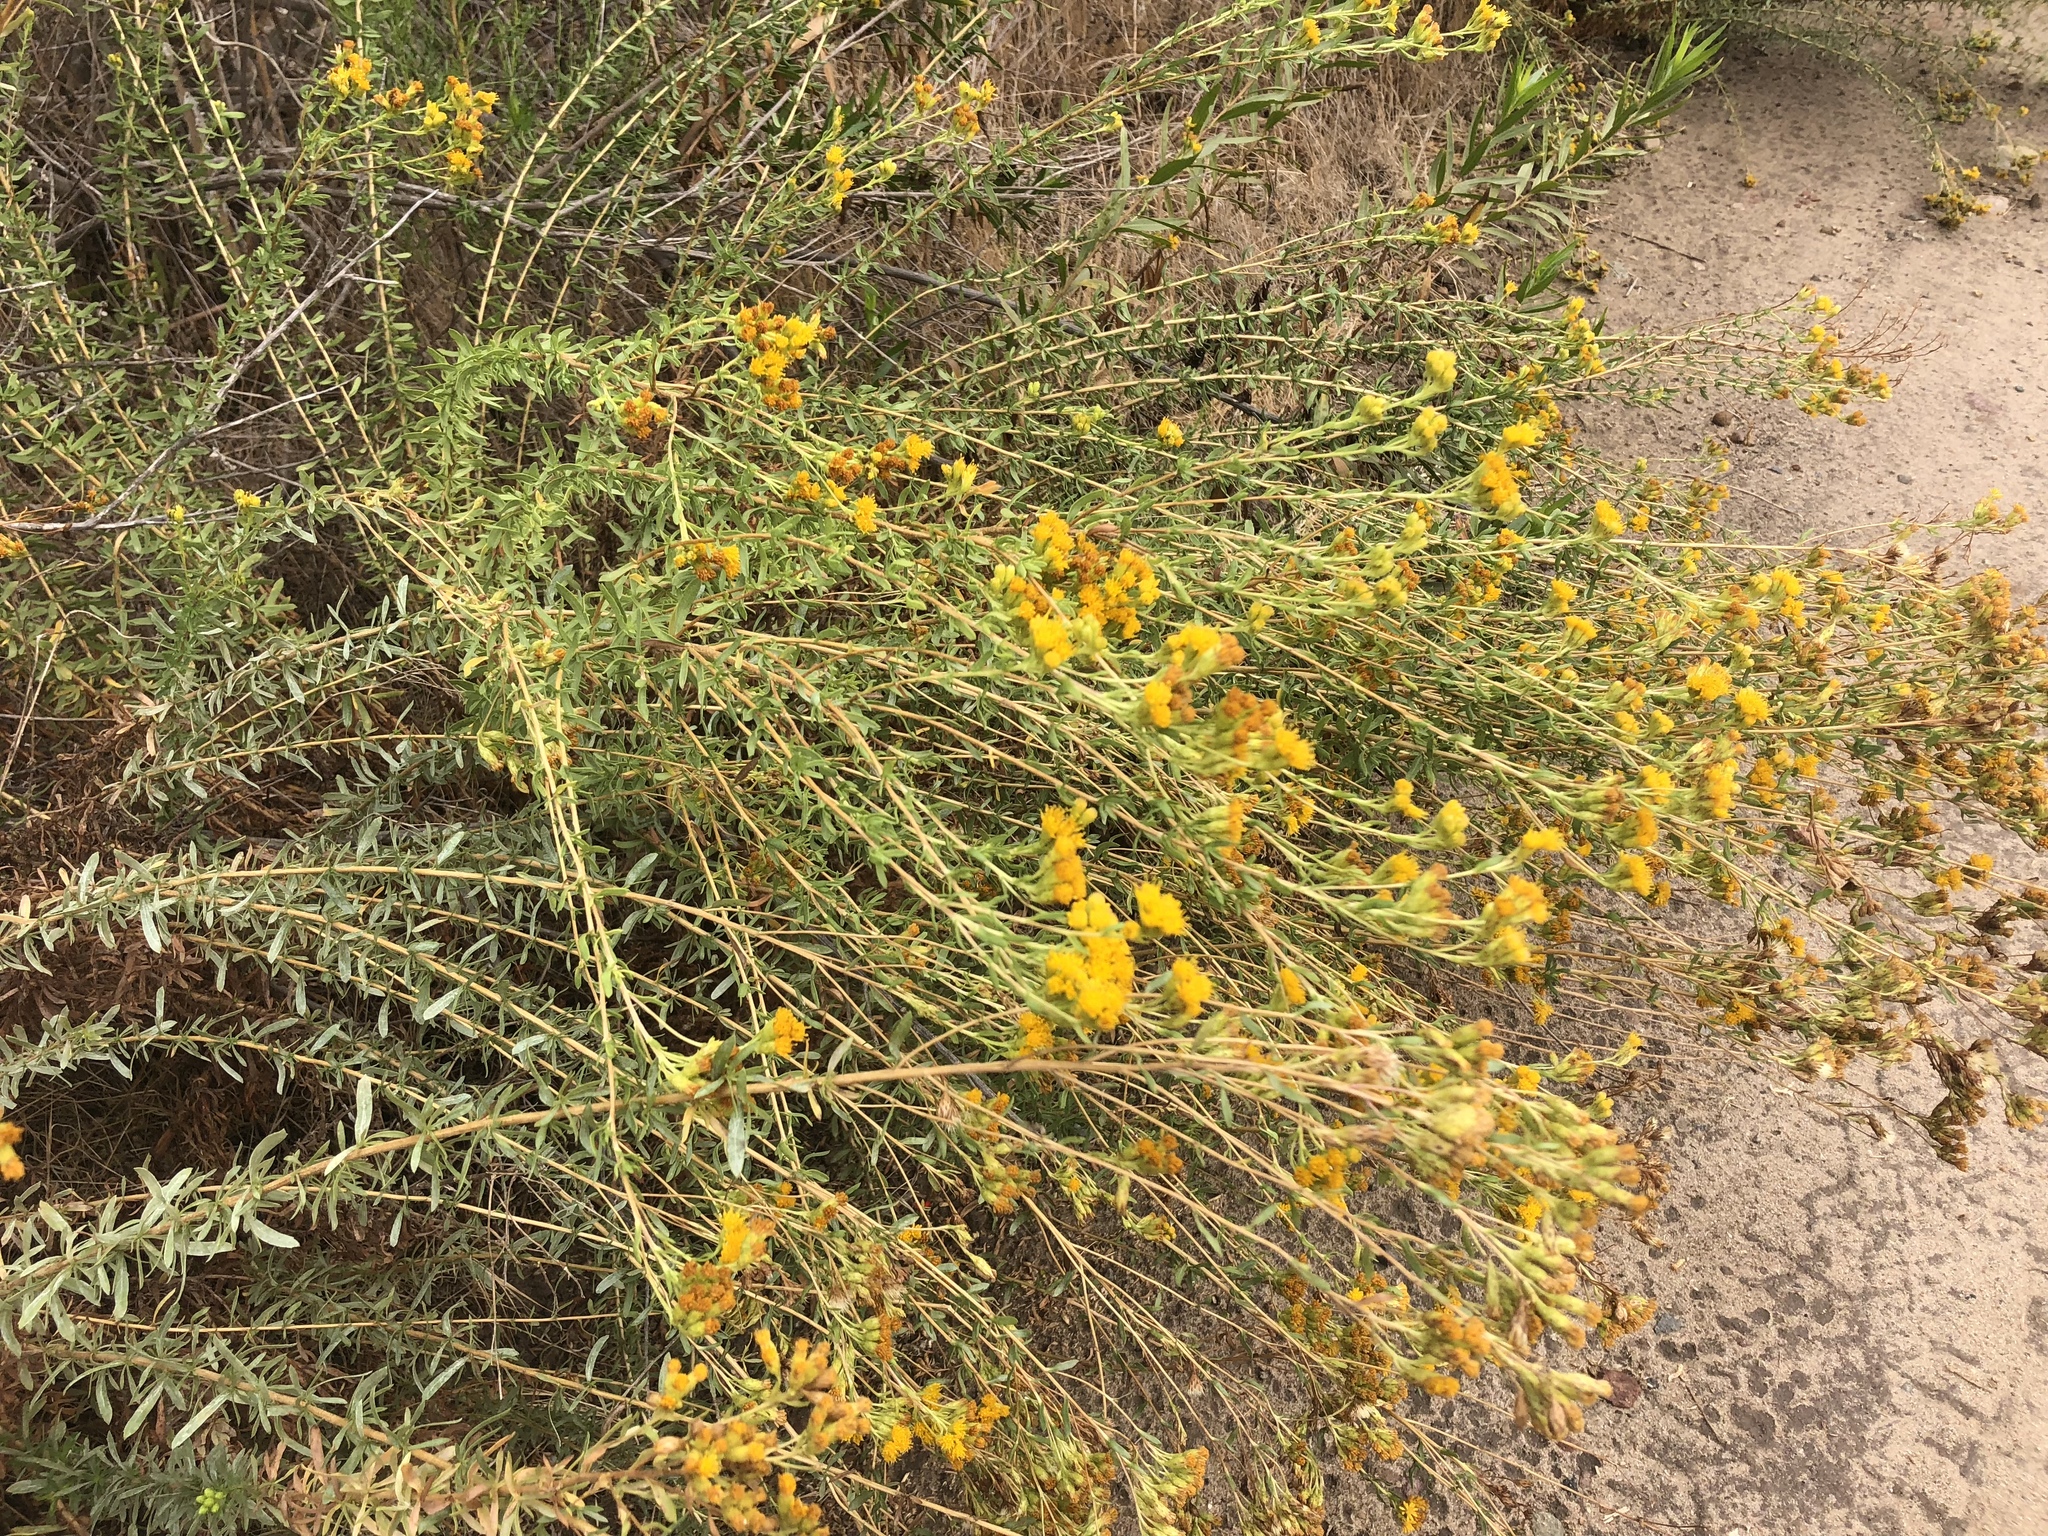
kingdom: Plantae
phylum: Tracheophyta
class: Magnoliopsida
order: Asterales
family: Asteraceae
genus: Isocoma
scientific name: Isocoma menziesii
